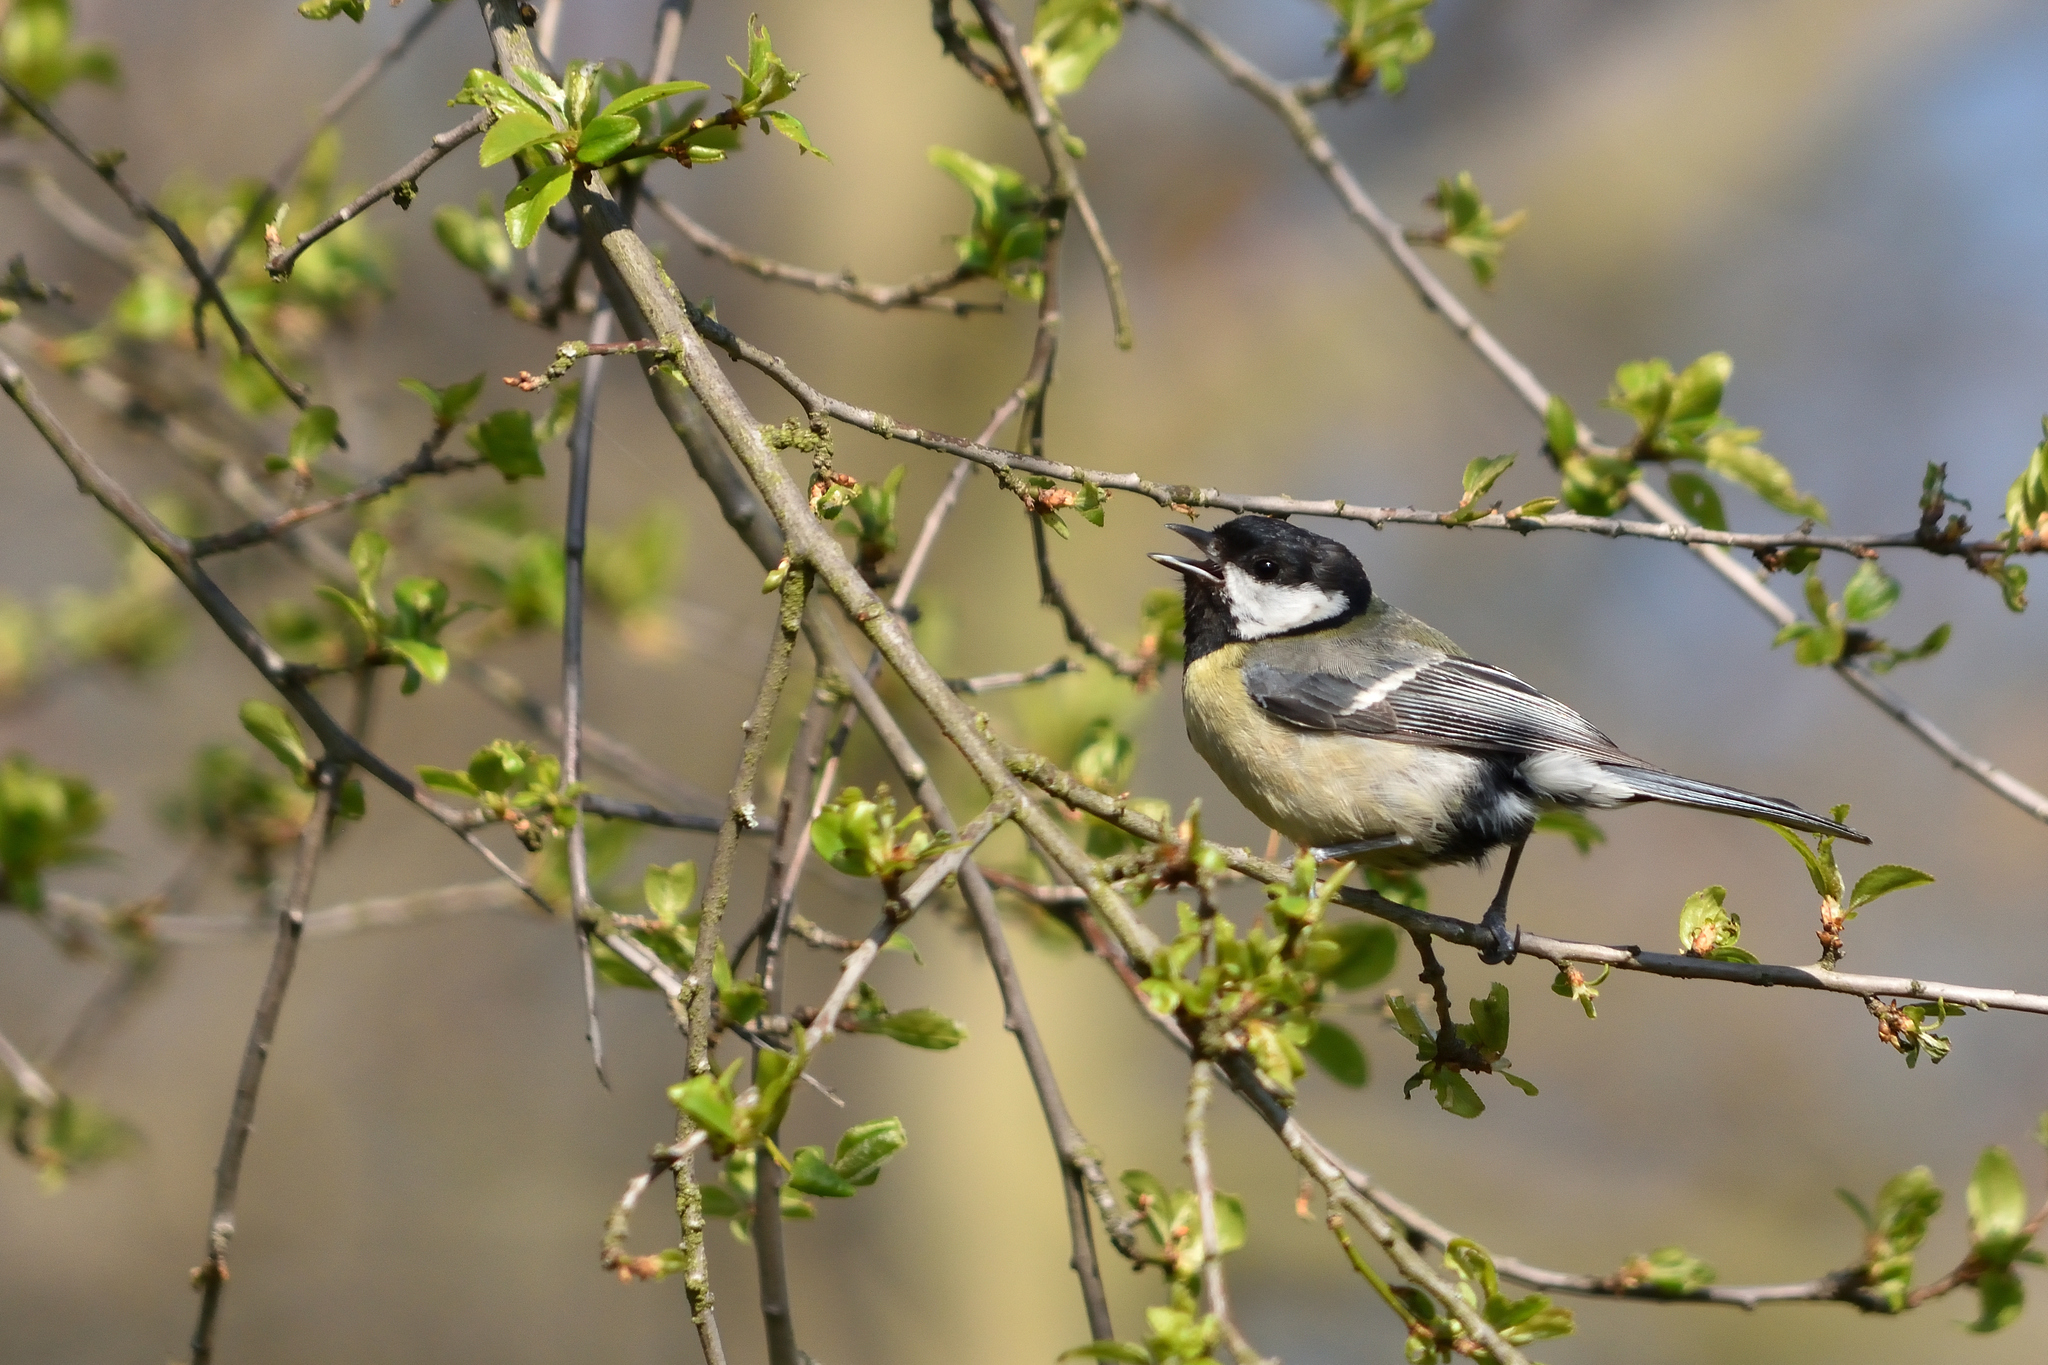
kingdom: Animalia
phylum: Chordata
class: Aves
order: Passeriformes
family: Paridae
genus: Parus
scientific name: Parus major
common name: Great tit
